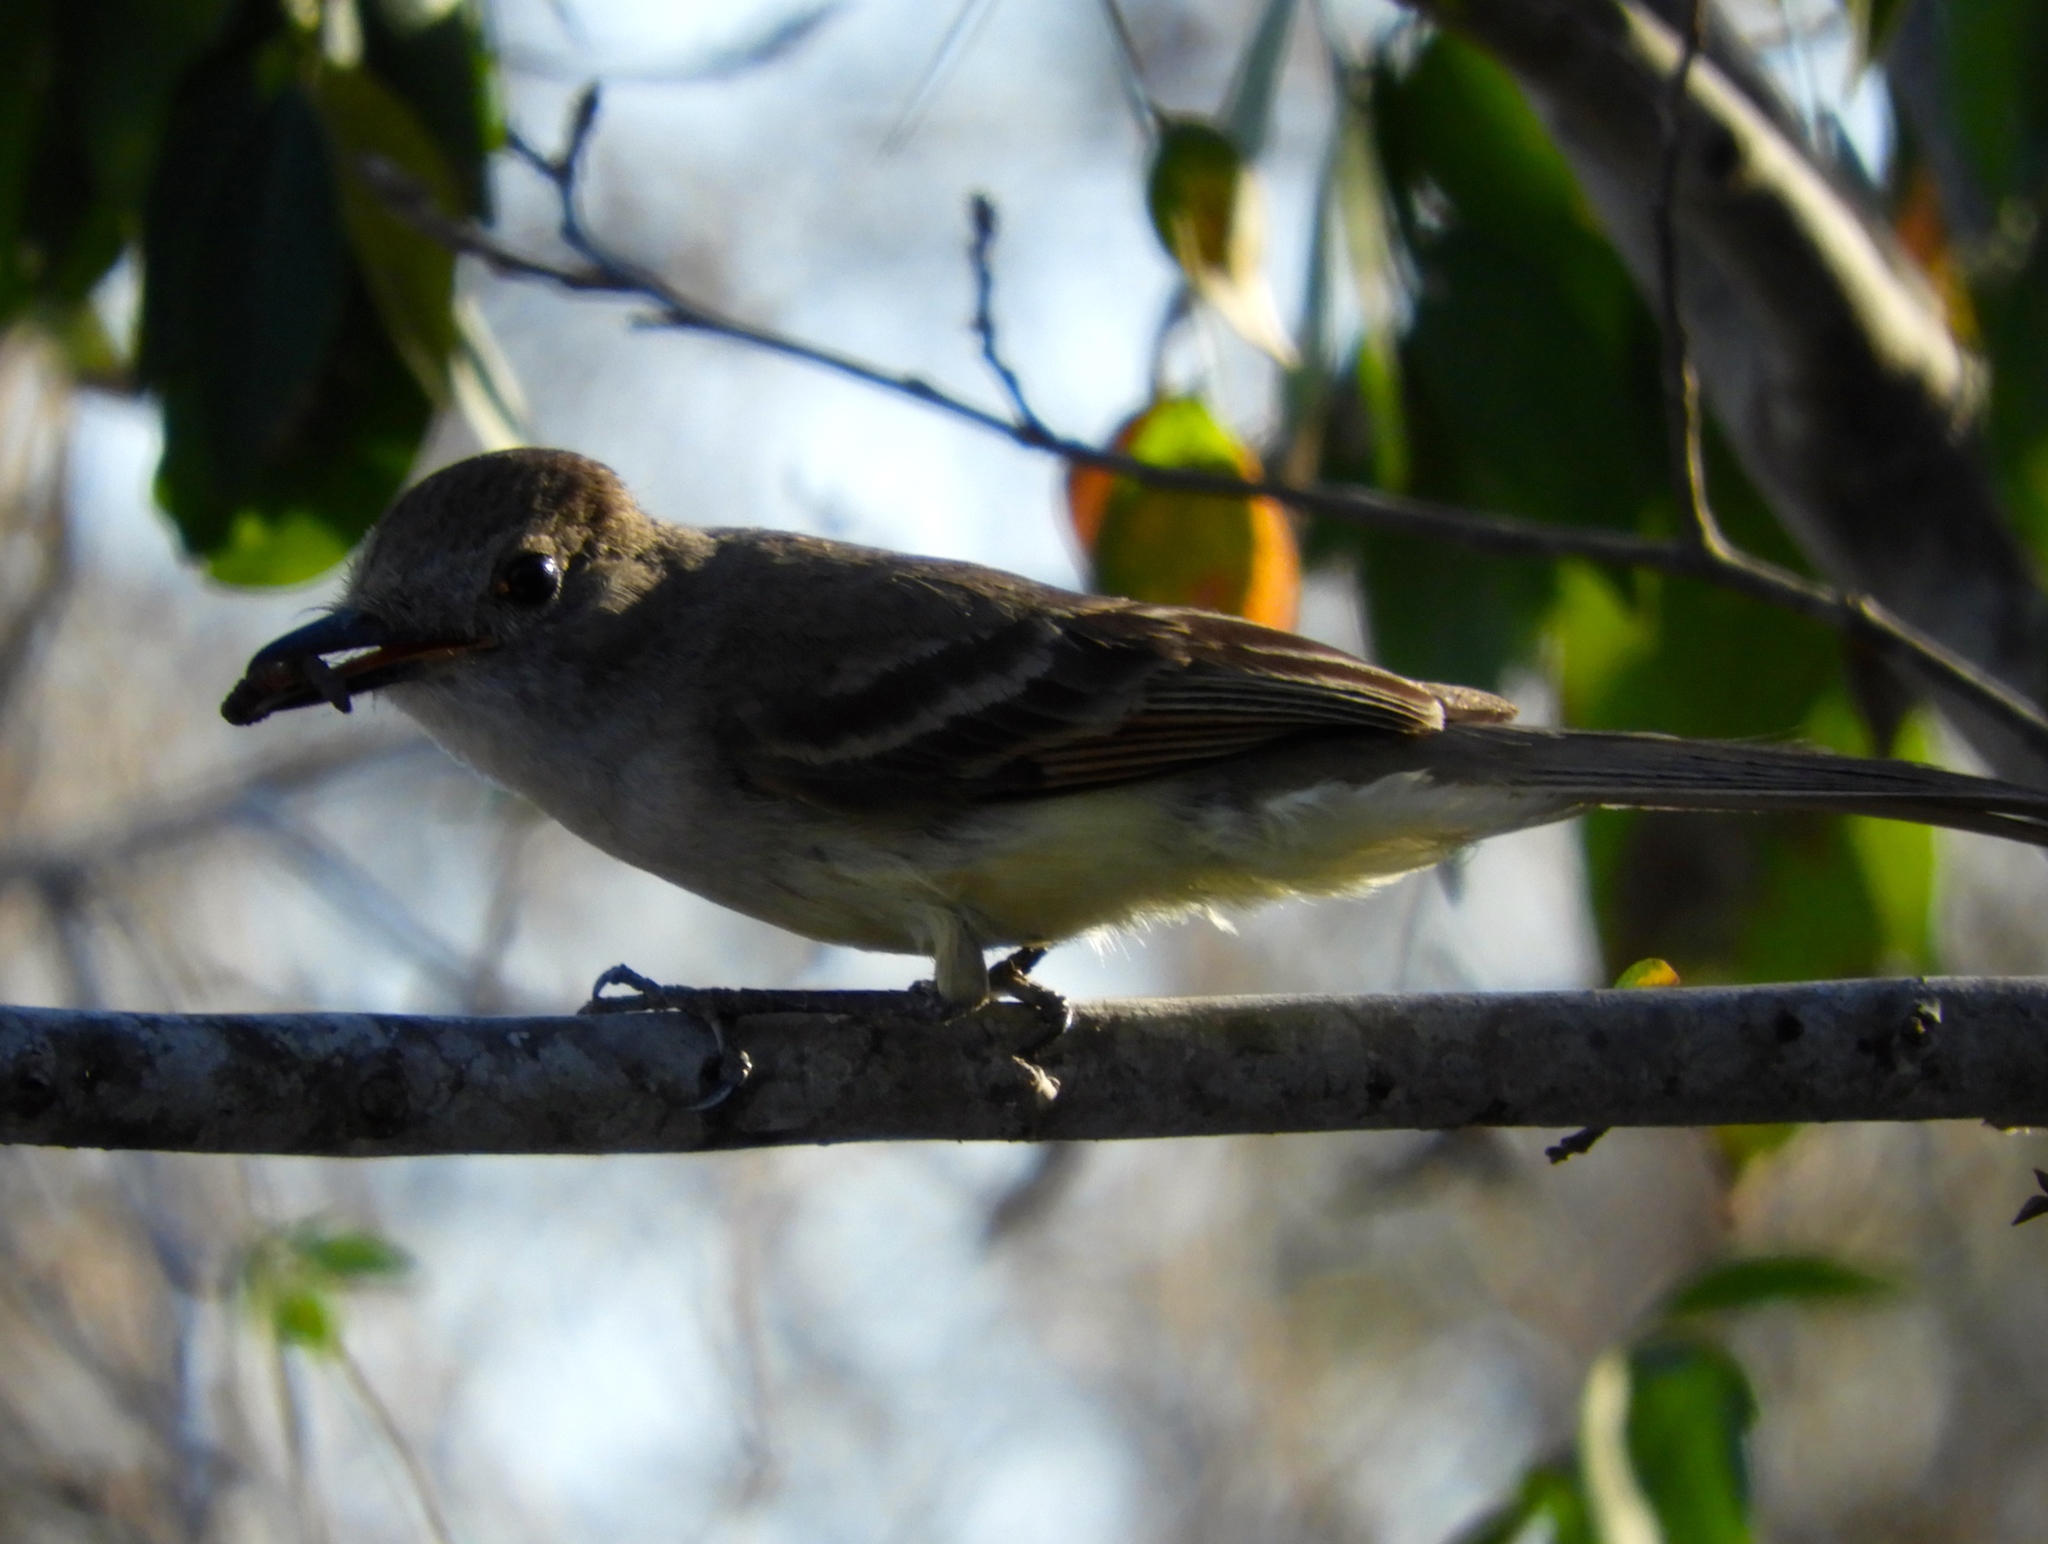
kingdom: Animalia
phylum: Chordata
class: Aves
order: Passeriformes
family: Tyrannidae
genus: Myiarchus
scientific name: Myiarchus cinerascens
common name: Ash-throated flycatcher
